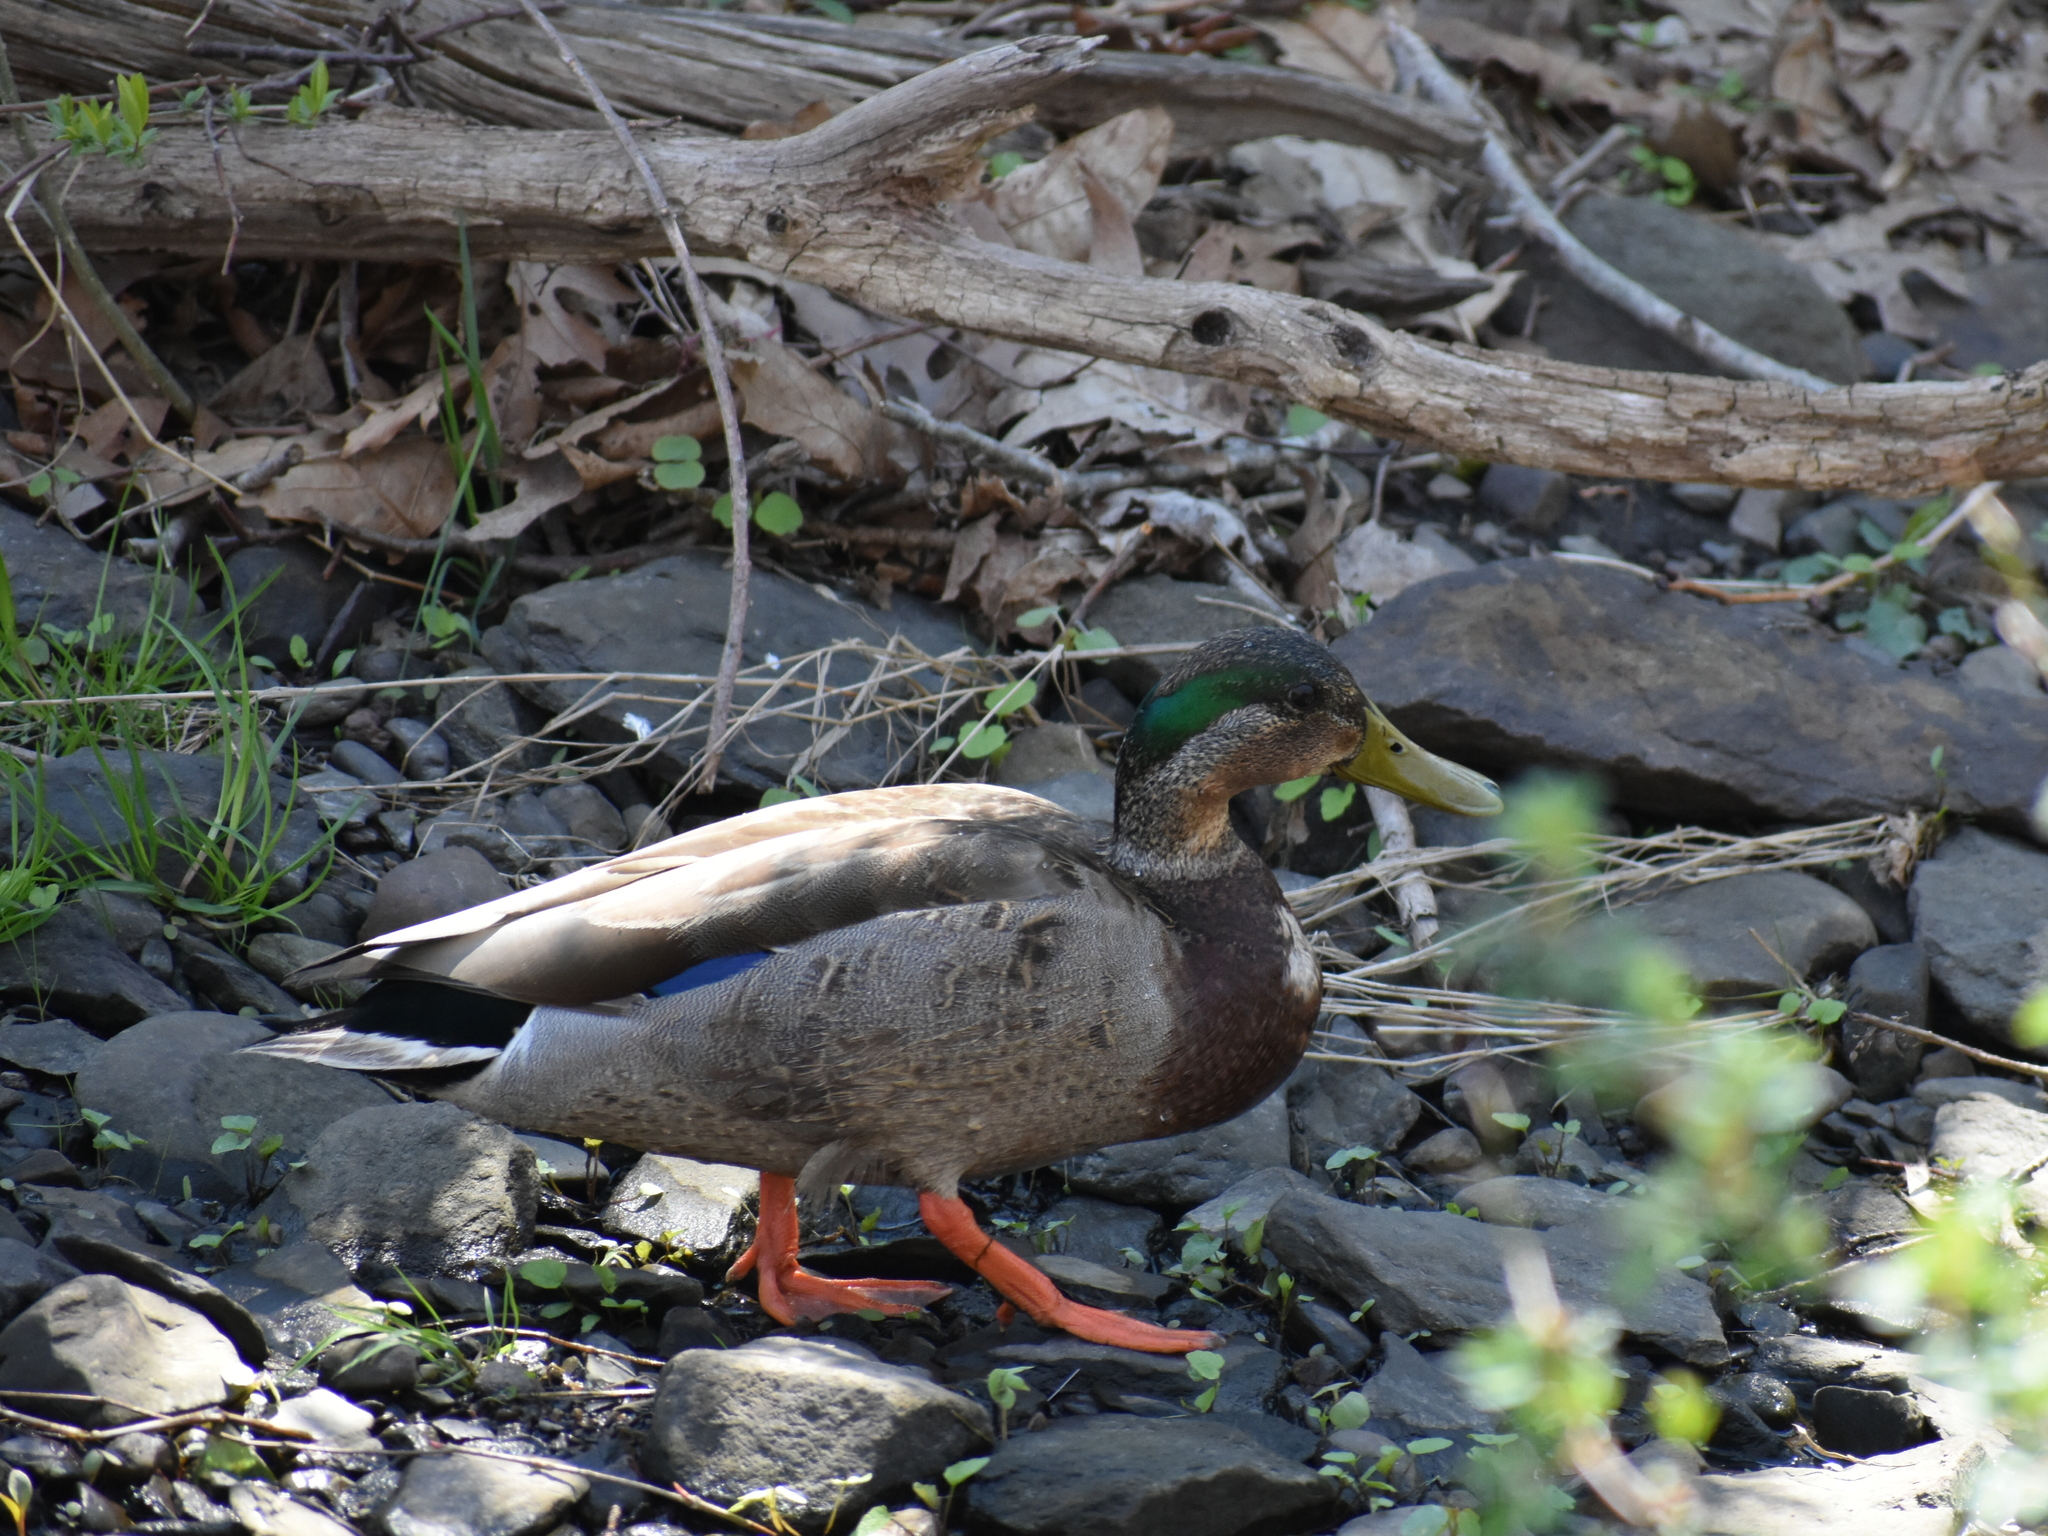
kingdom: Animalia
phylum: Chordata
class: Aves
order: Anseriformes
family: Anatidae
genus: Anas
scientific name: Anas
